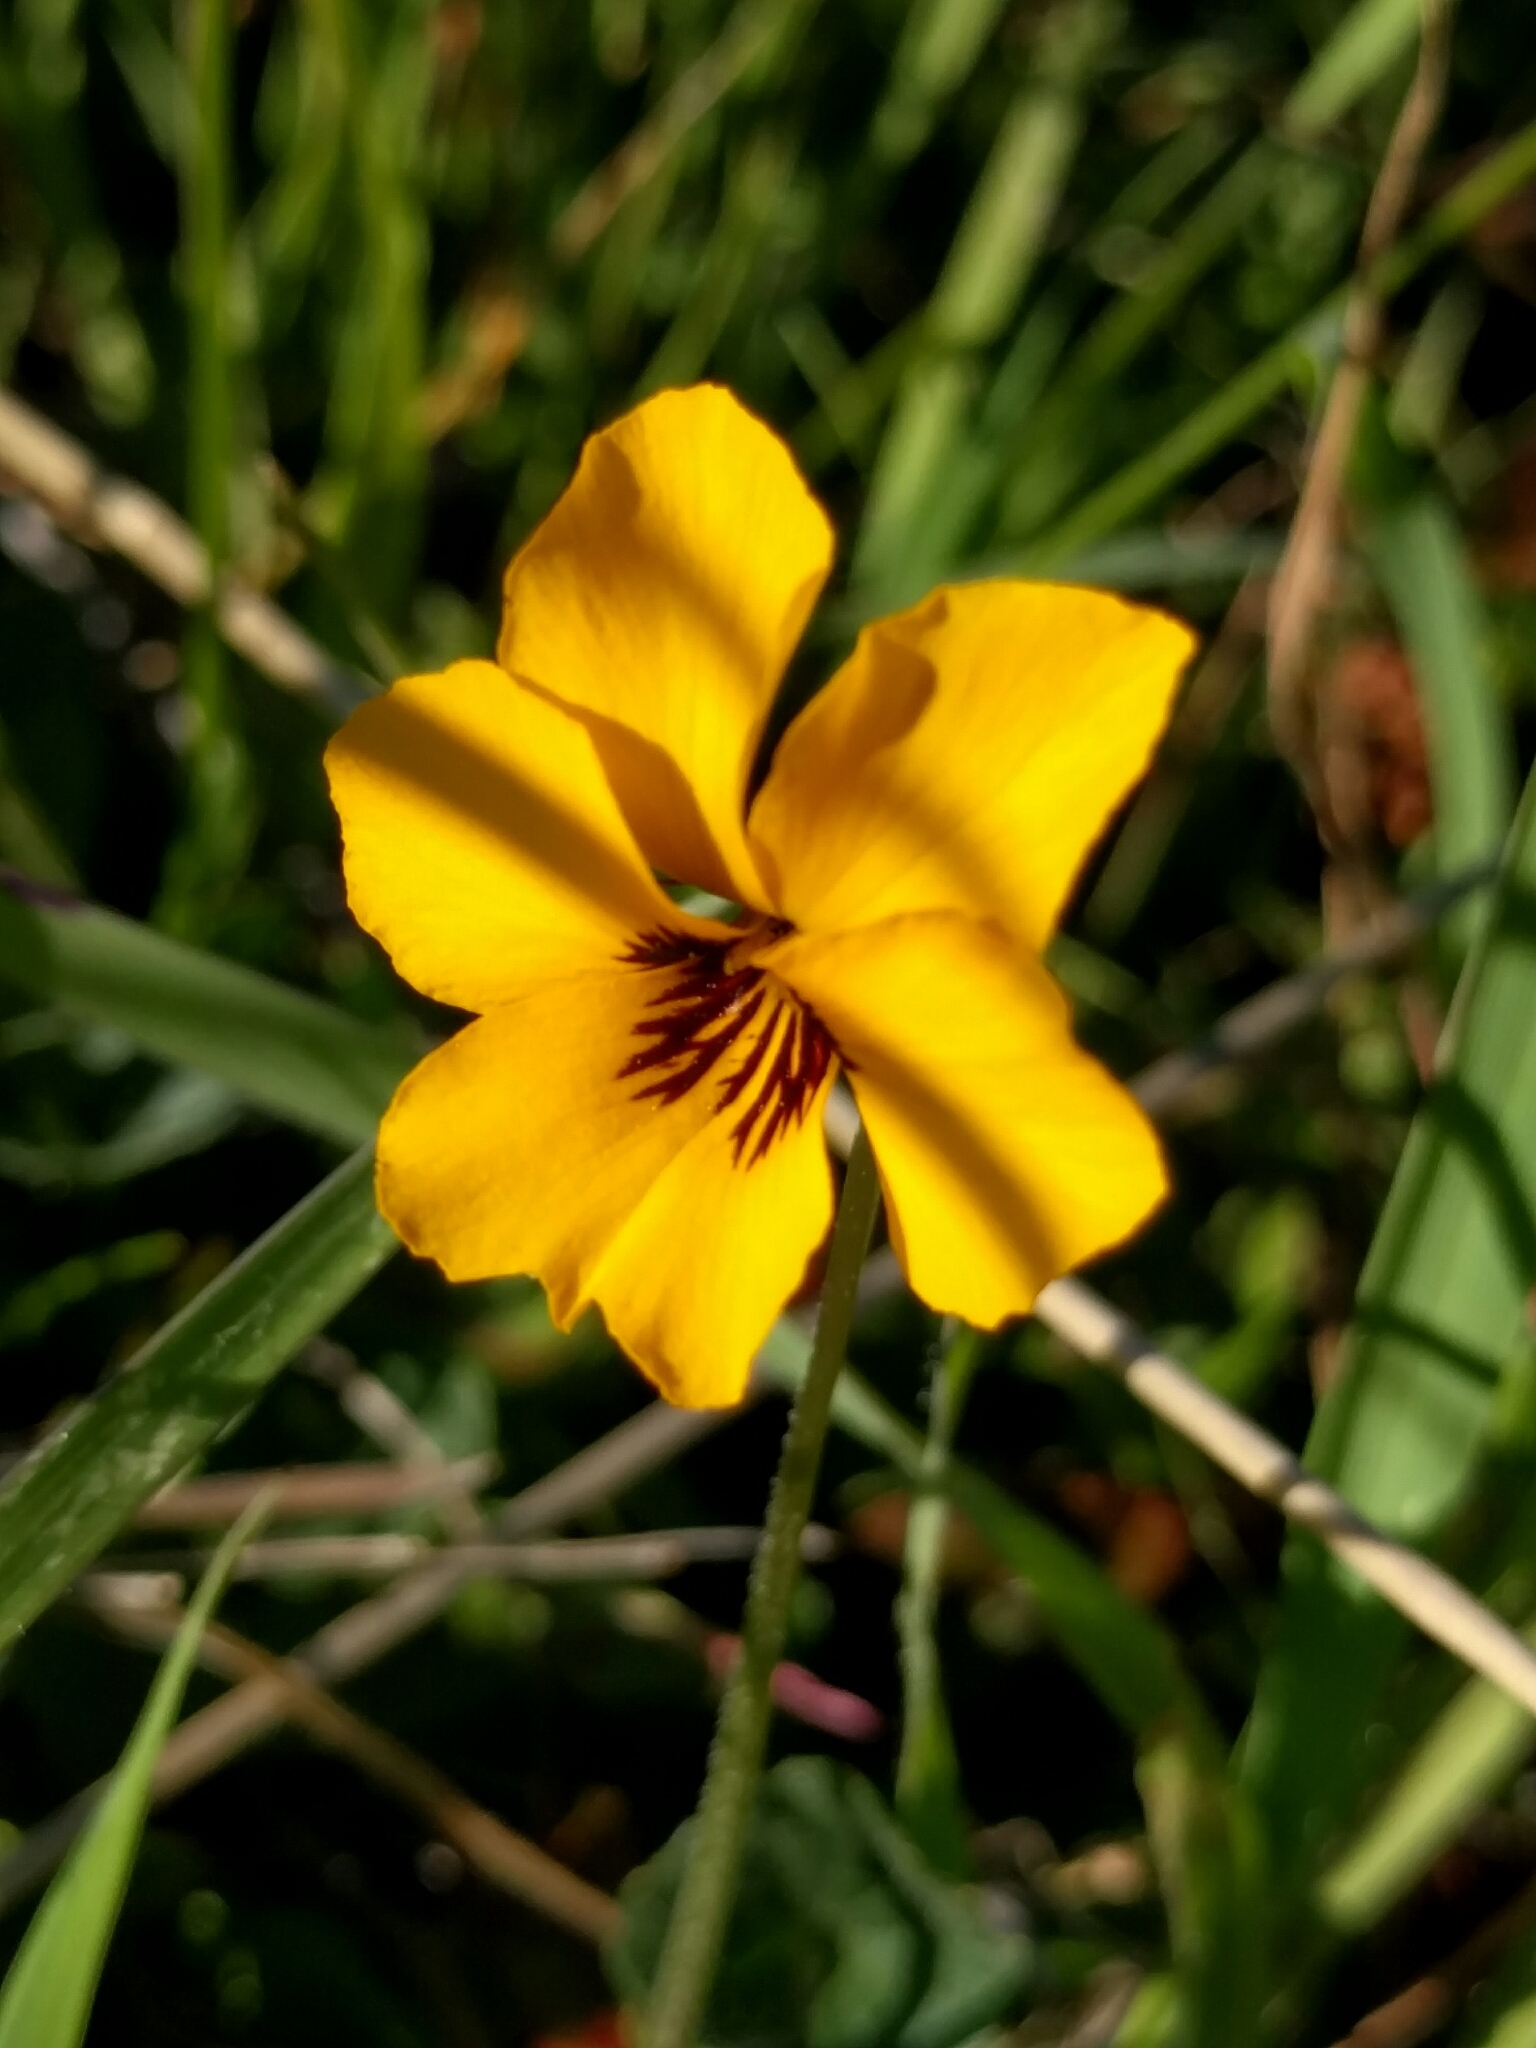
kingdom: Plantae
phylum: Tracheophyta
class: Magnoliopsida
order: Malpighiales
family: Violaceae
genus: Viola
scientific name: Viola pedunculata
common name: California golden violet
